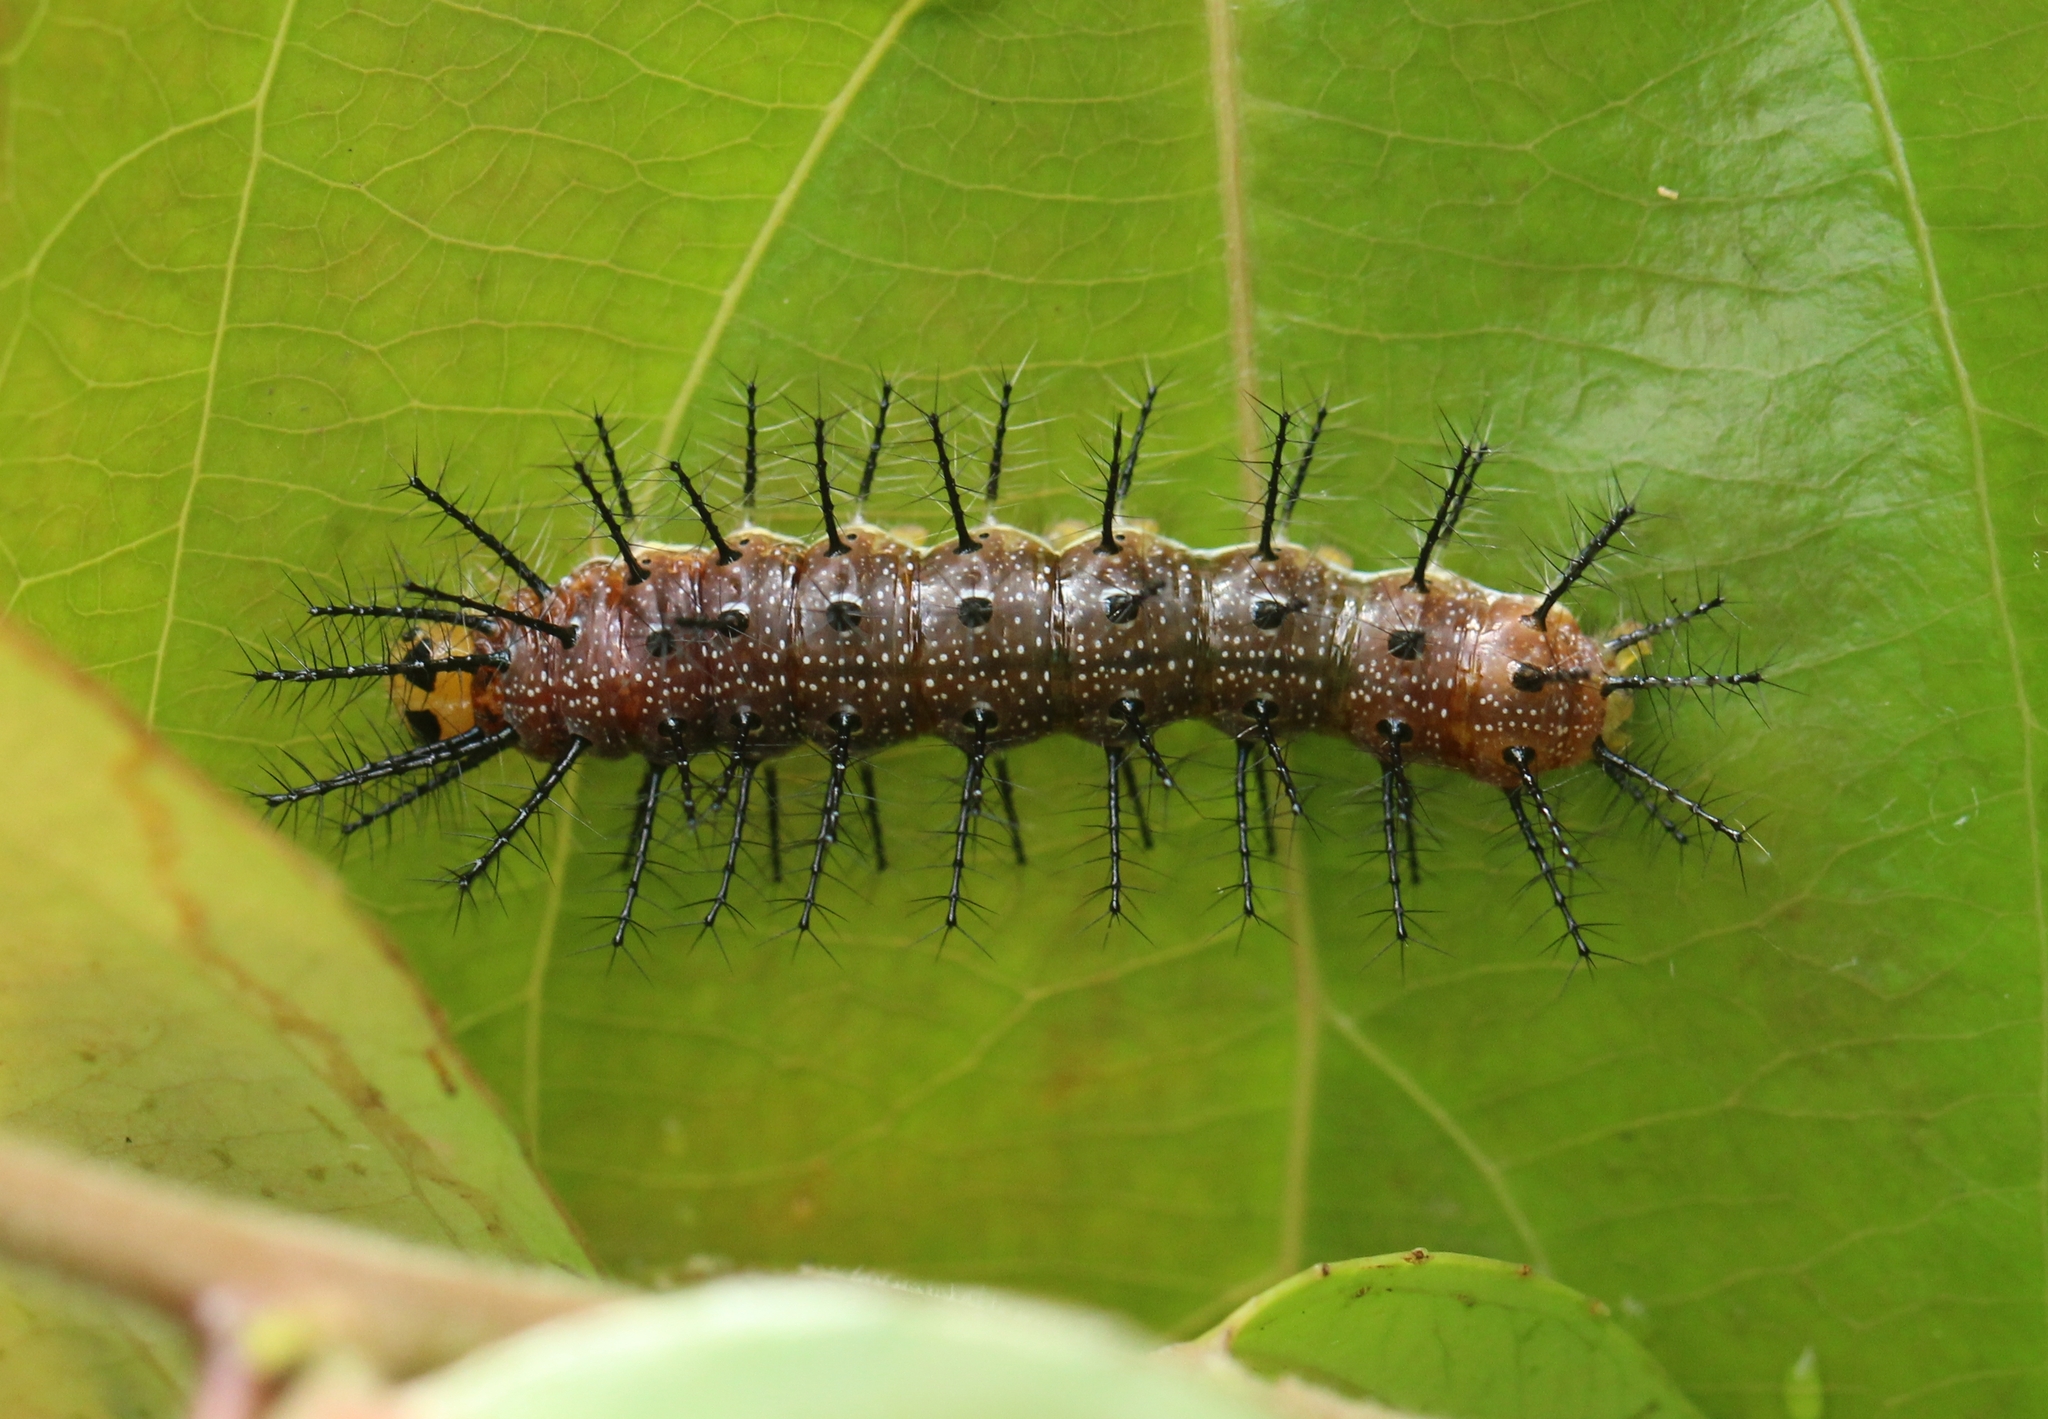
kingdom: Animalia
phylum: Arthropoda
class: Insecta
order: Lepidoptera
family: Nymphalidae
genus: Cupha
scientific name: Cupha erymanthis
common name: Rustic
